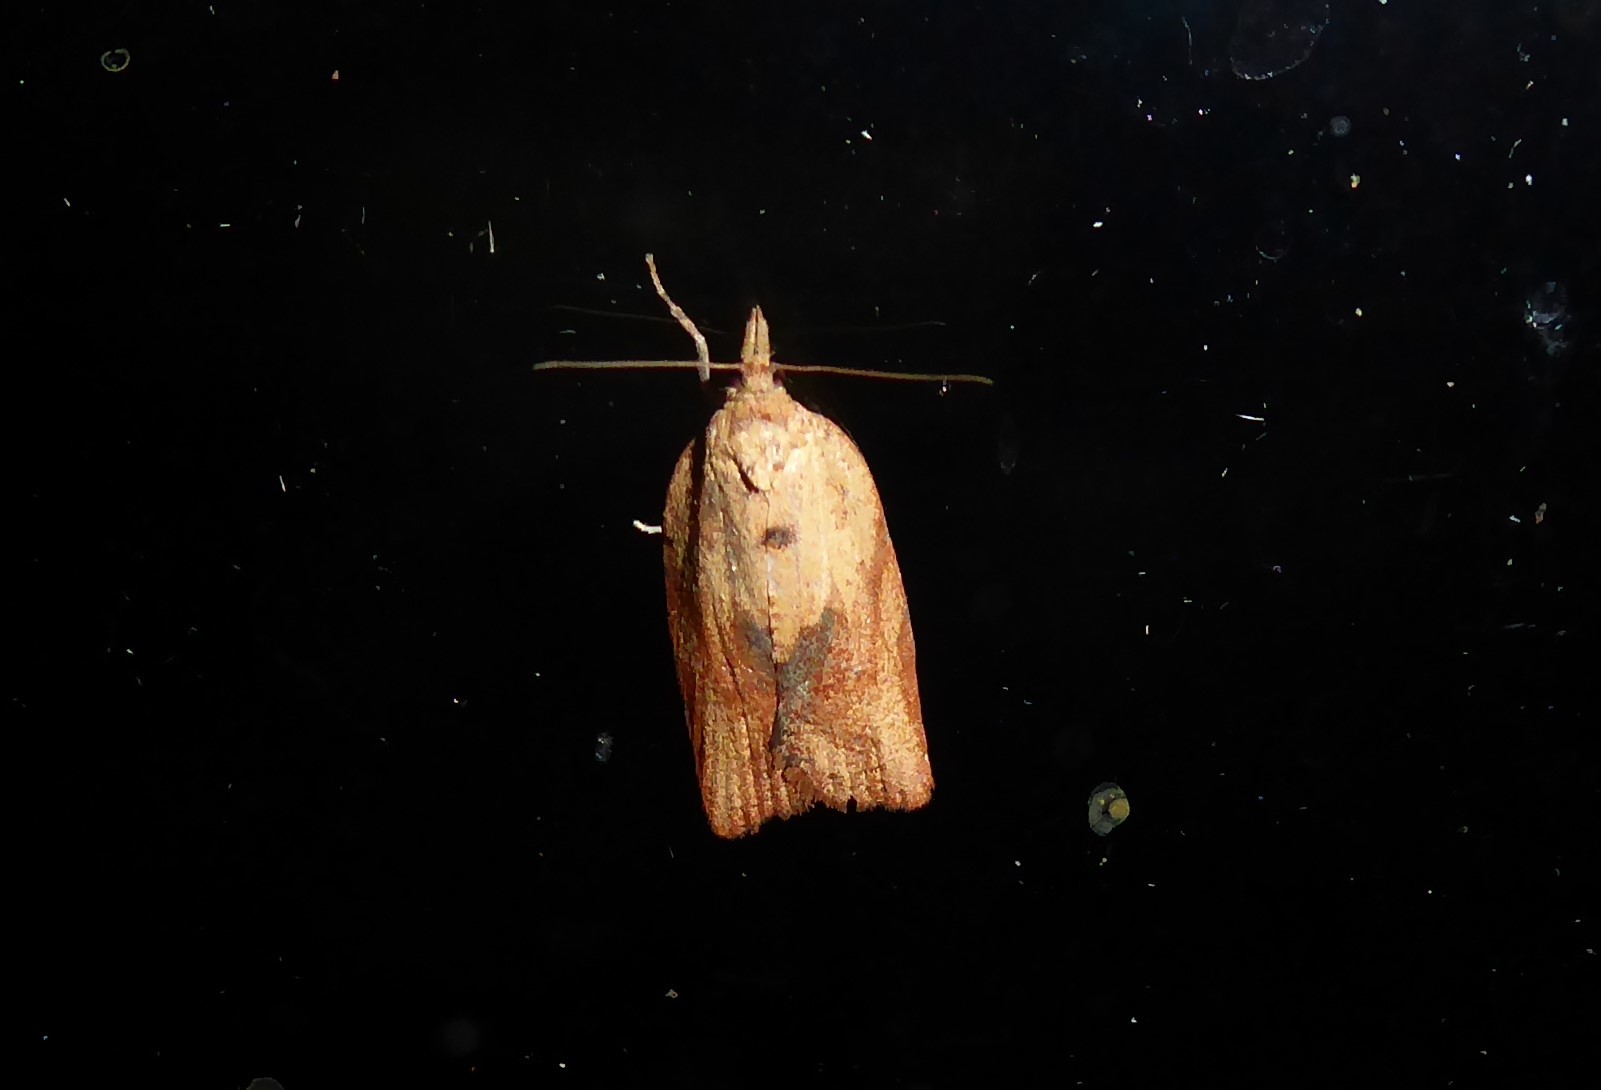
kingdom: Animalia
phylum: Arthropoda
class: Insecta
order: Lepidoptera
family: Tortricidae
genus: Epiphyas
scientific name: Epiphyas postvittana
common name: Light brown apple moth
